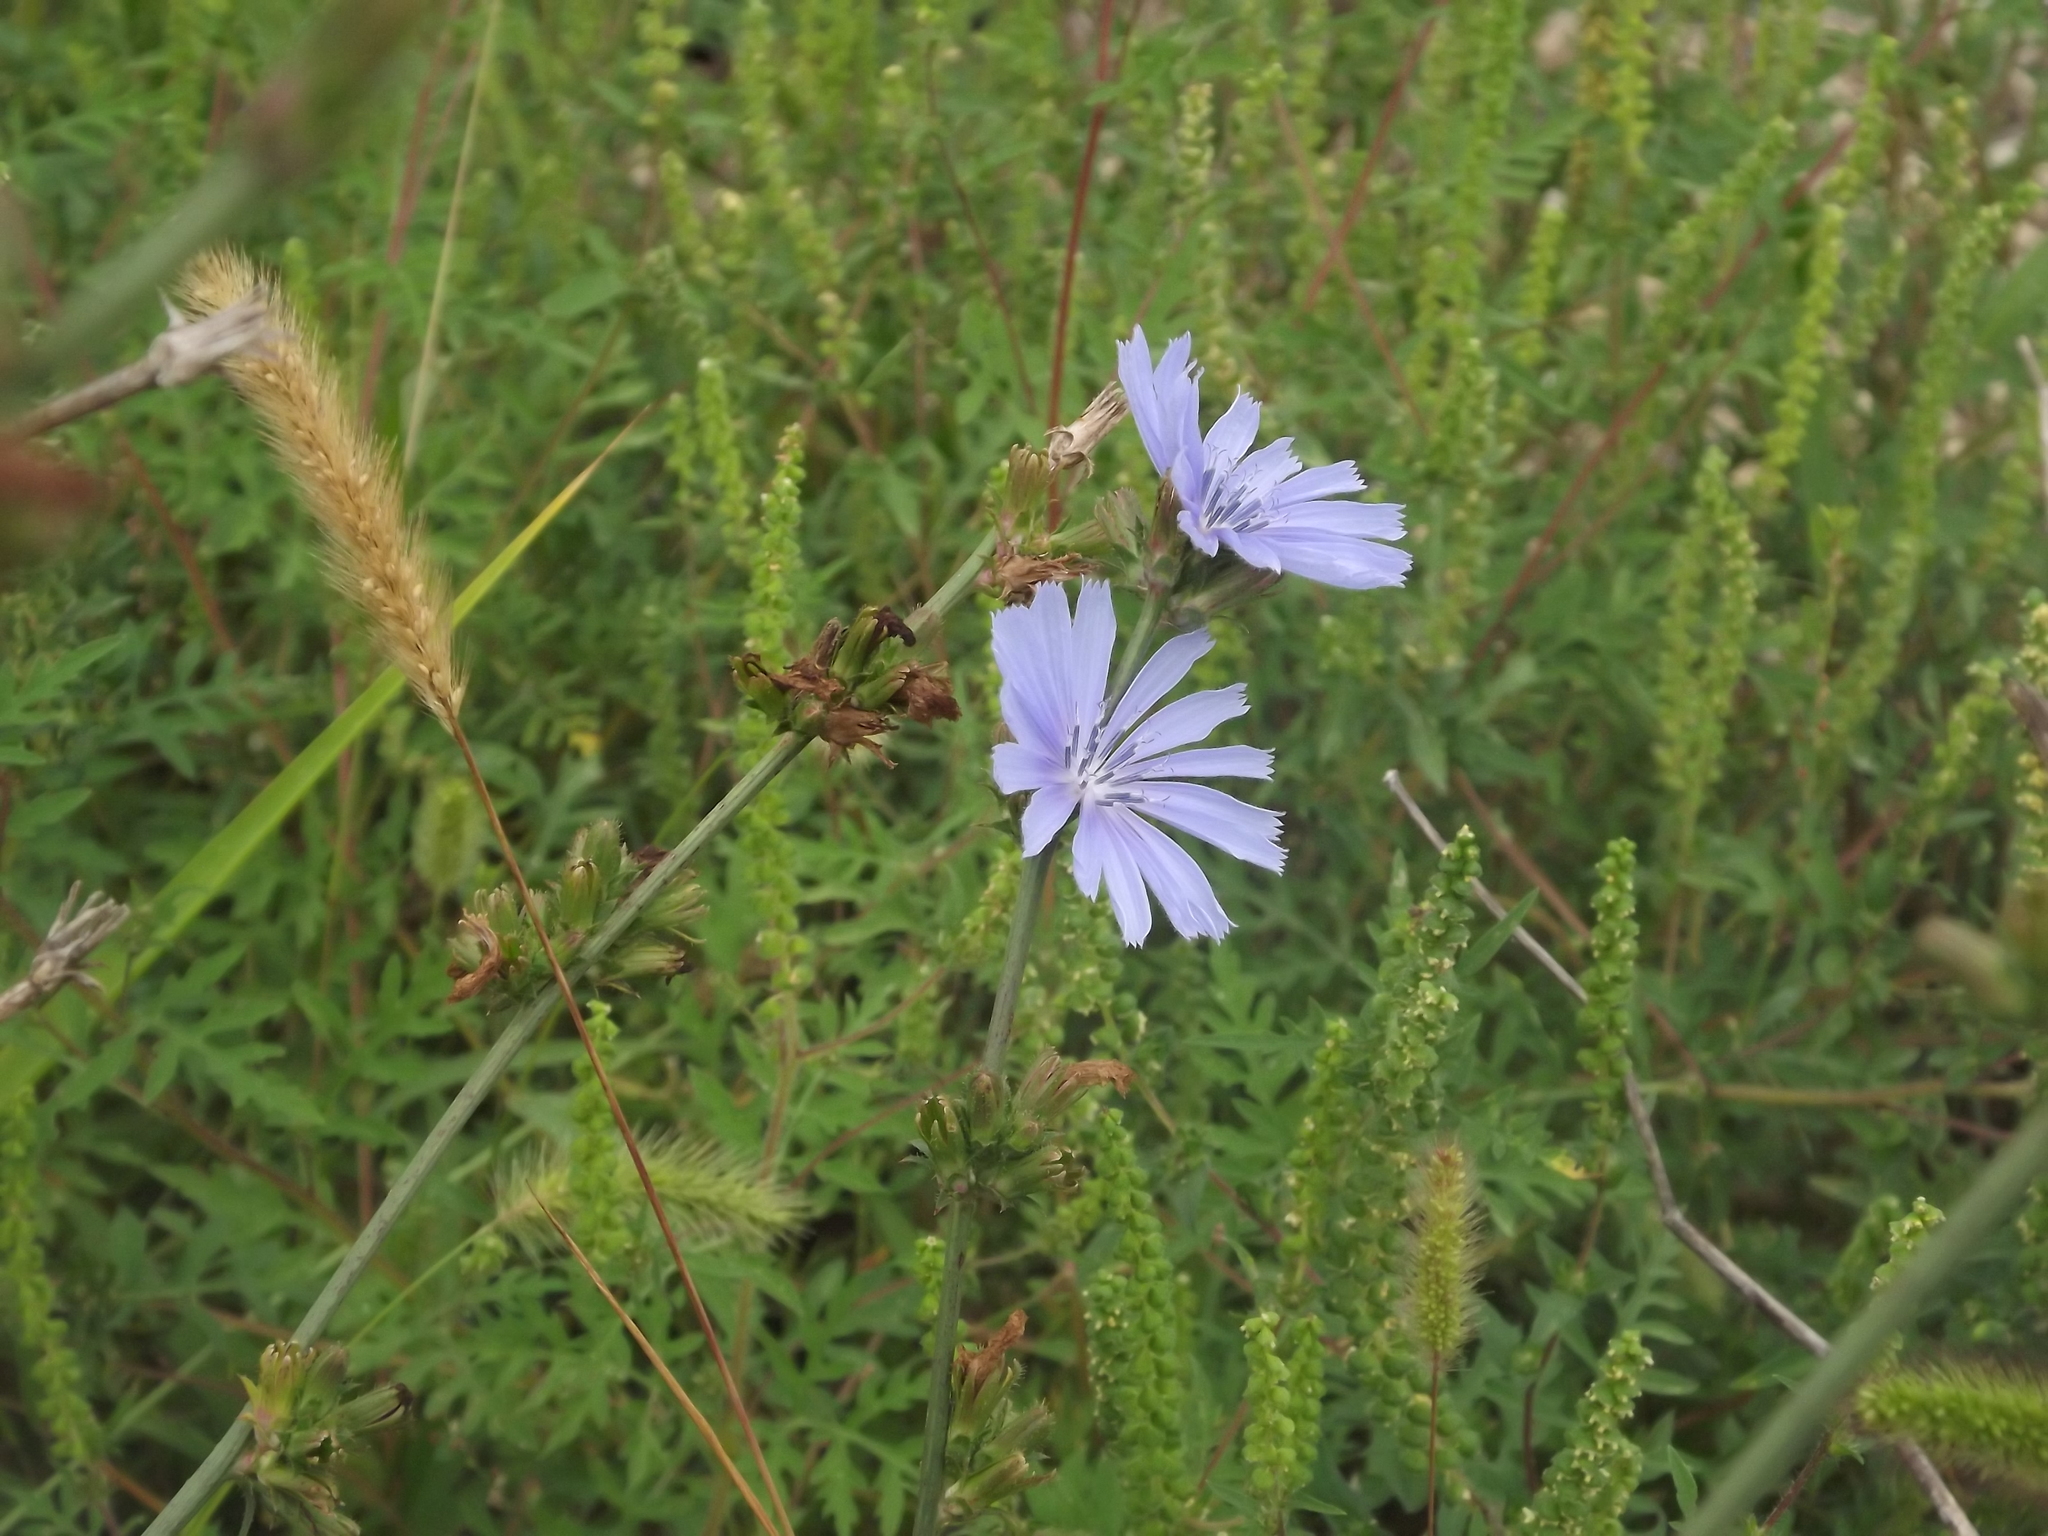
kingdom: Plantae
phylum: Tracheophyta
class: Magnoliopsida
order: Asterales
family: Asteraceae
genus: Cichorium
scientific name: Cichorium intybus
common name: Chicory
